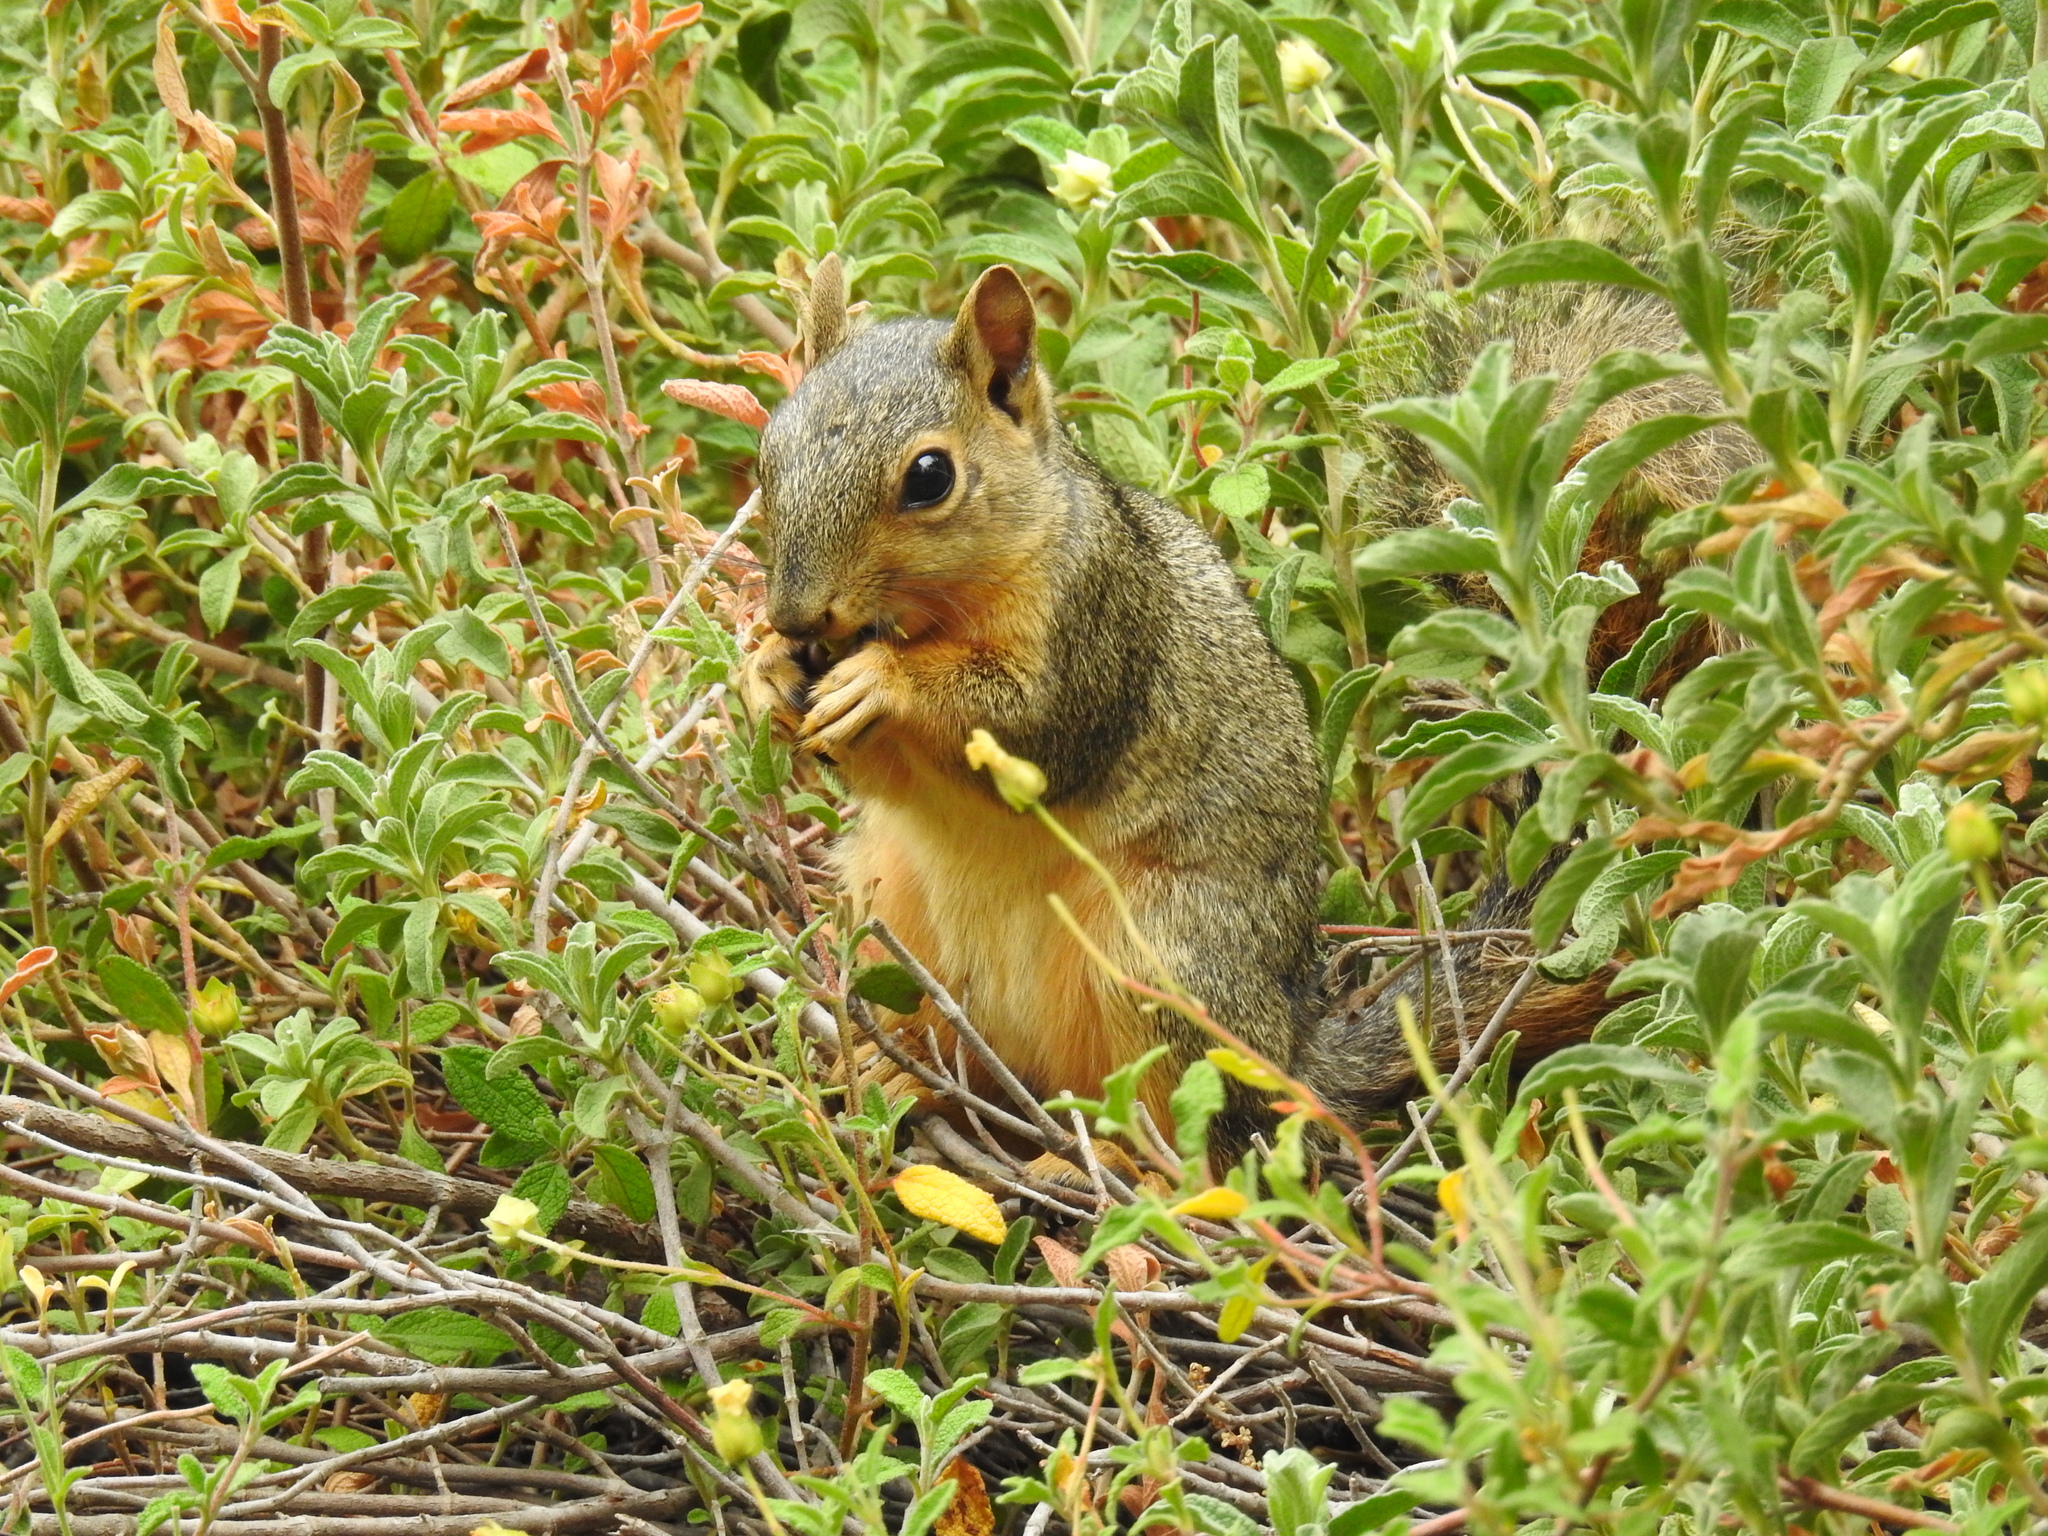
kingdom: Animalia
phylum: Chordata
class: Mammalia
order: Rodentia
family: Sciuridae
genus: Sciurus
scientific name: Sciurus niger
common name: Fox squirrel
